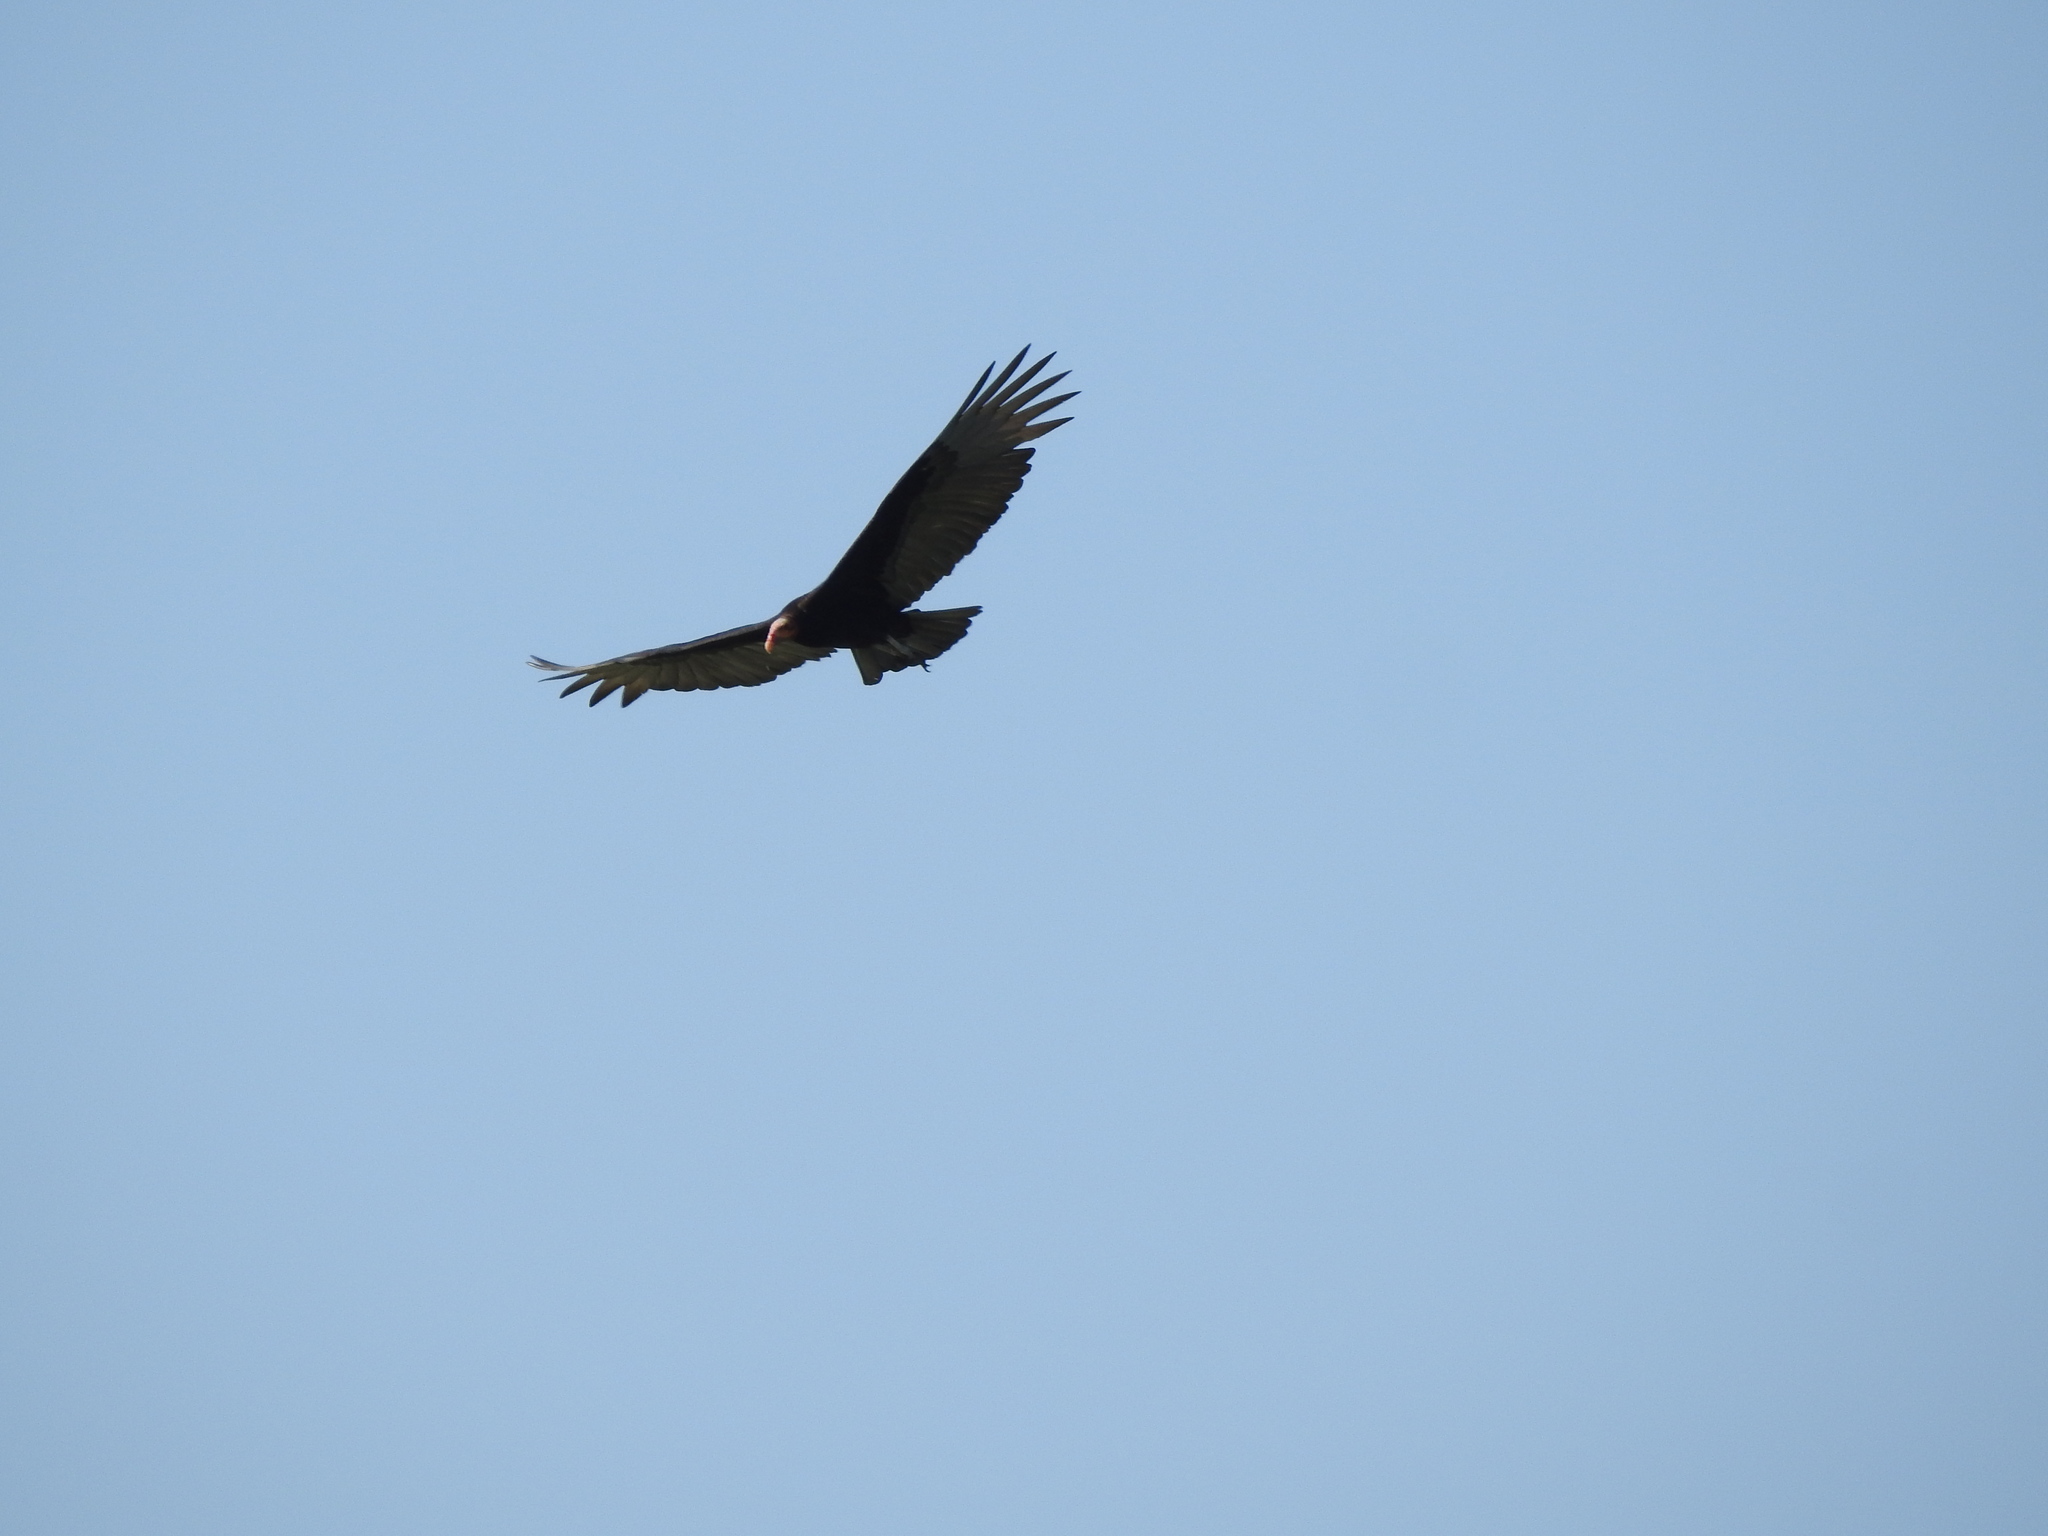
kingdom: Animalia
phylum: Chordata
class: Aves
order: Accipitriformes
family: Cathartidae
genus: Cathartes
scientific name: Cathartes burrovianus
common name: Lesser yellow-headed vulture
